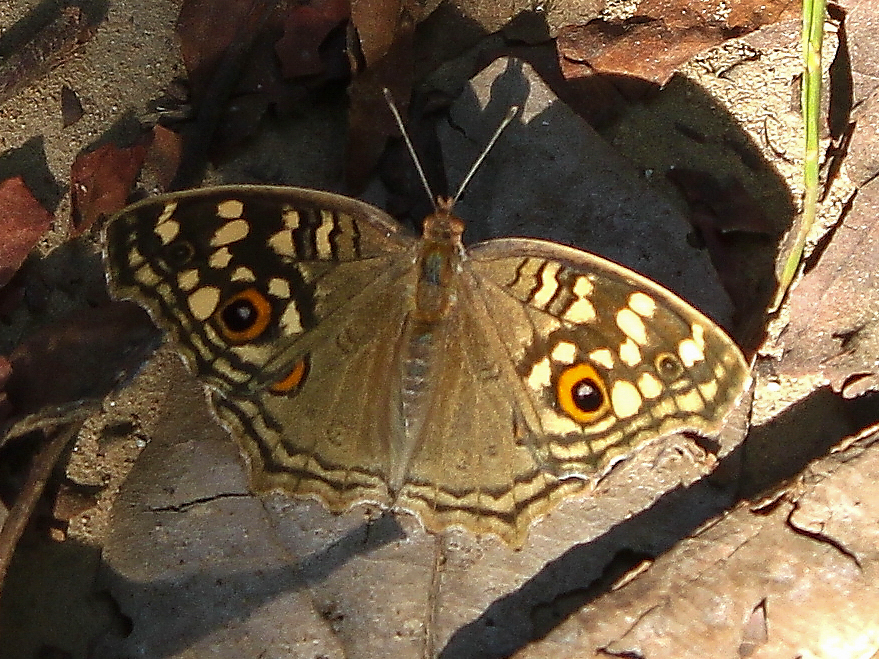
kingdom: Animalia
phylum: Arthropoda
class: Insecta
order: Lepidoptera
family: Nymphalidae
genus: Junonia
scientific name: Junonia lemonias
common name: Lemon pansy
